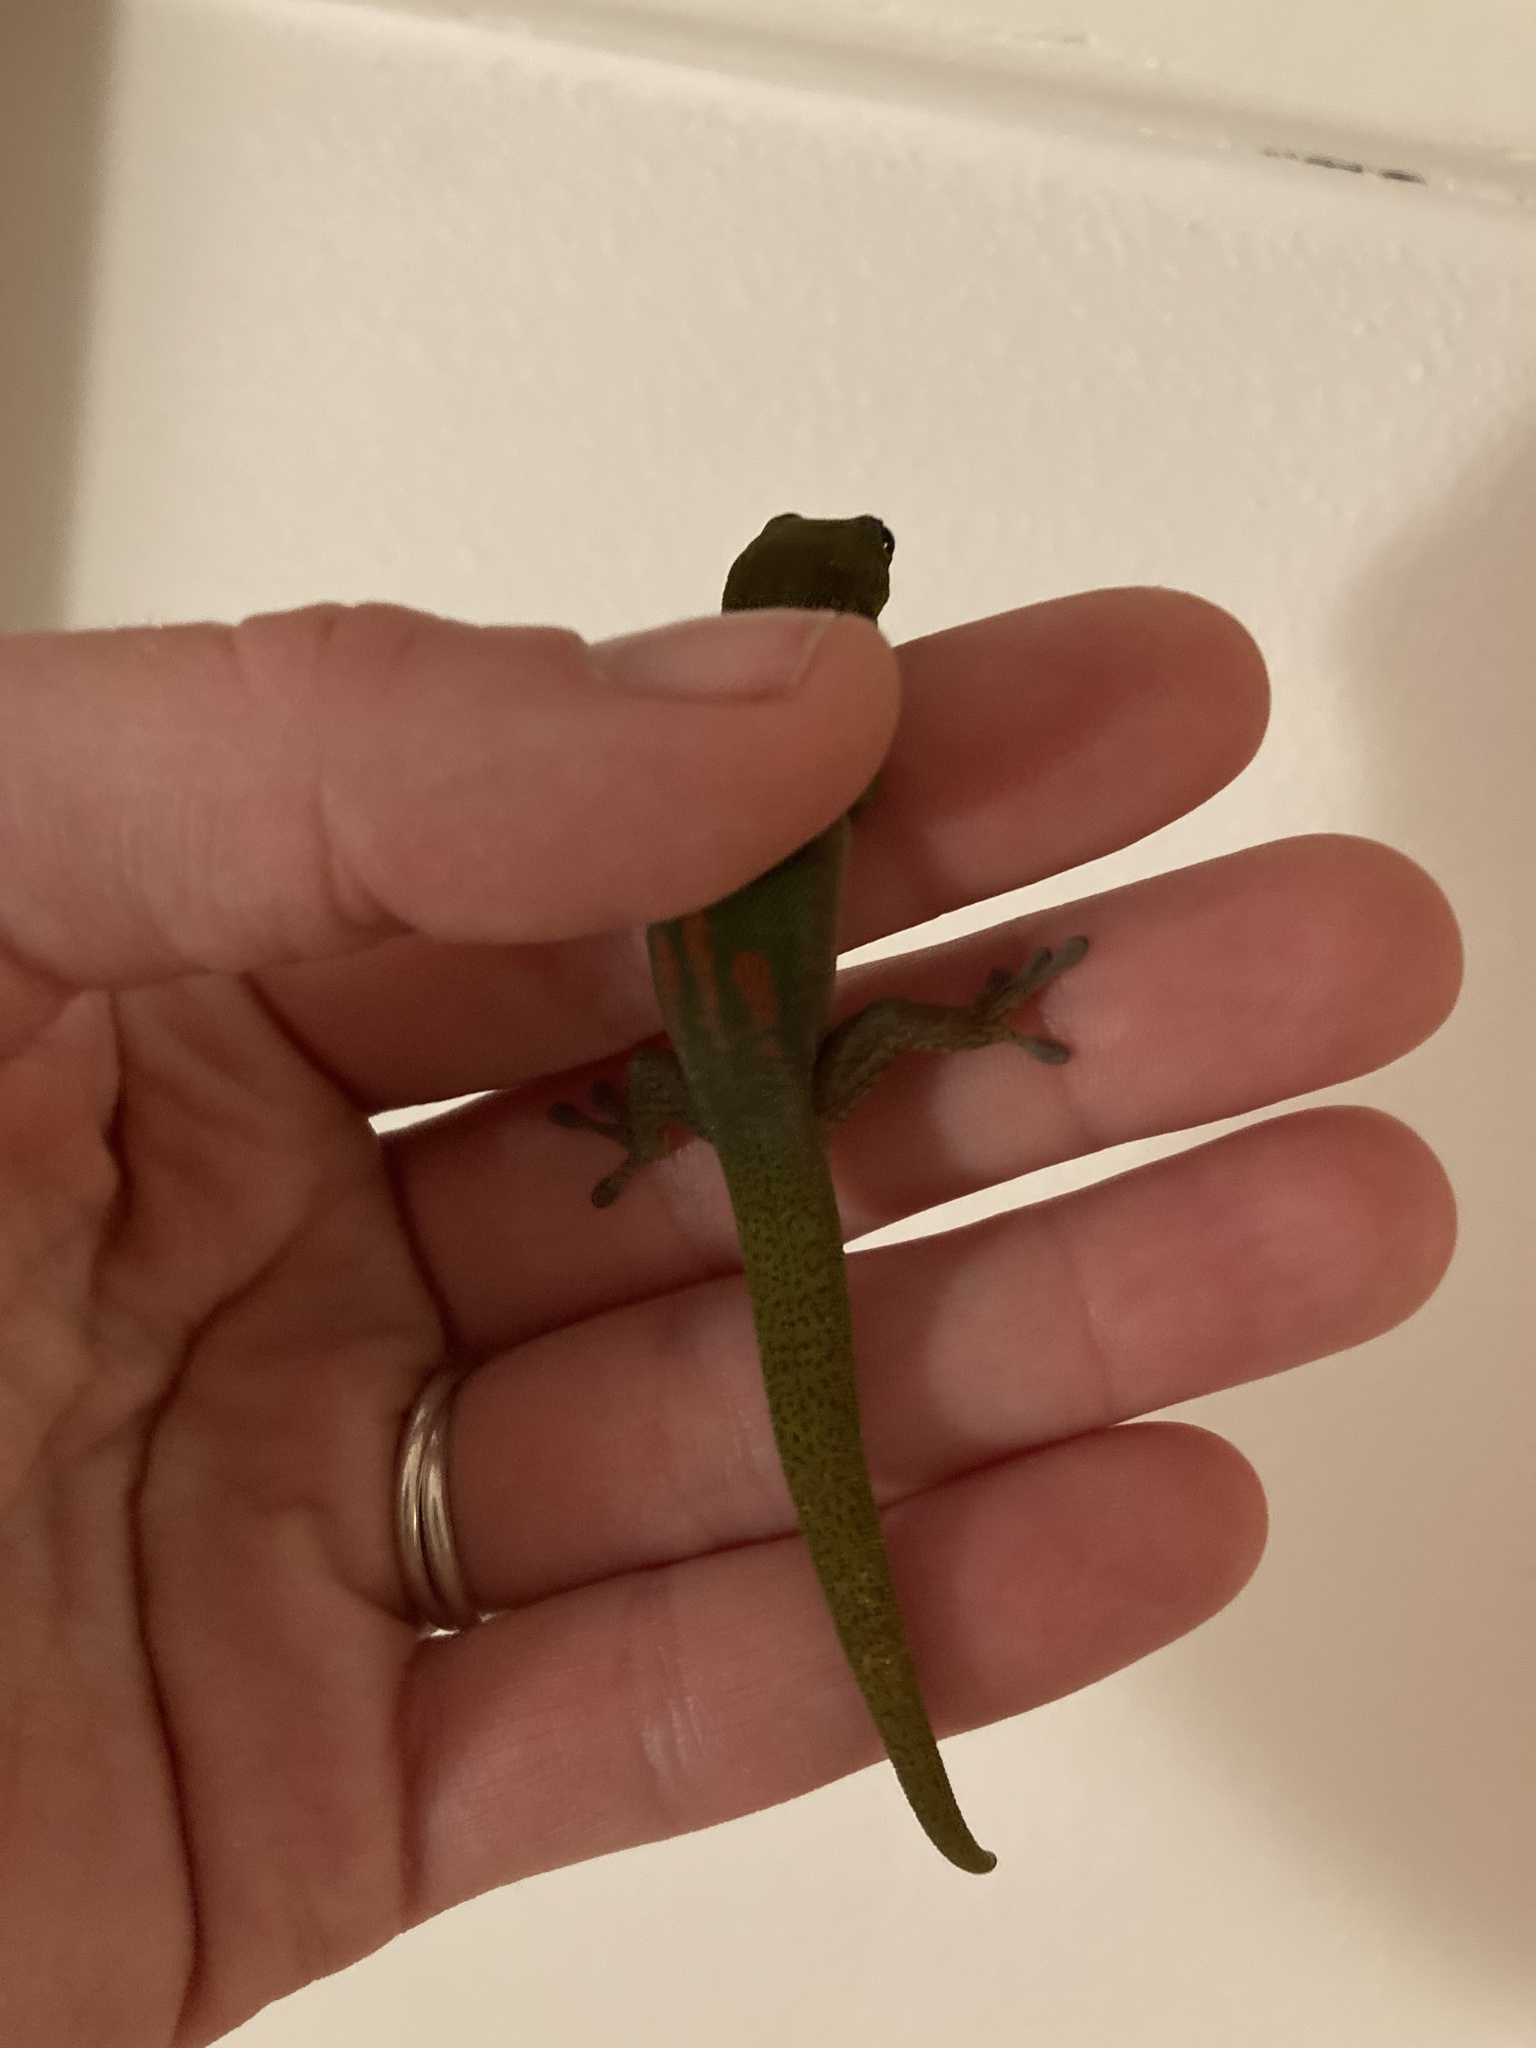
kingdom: Animalia
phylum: Chordata
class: Squamata
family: Gekkonidae
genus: Phelsuma
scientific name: Phelsuma laticauda
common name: Gold dust day gecko
